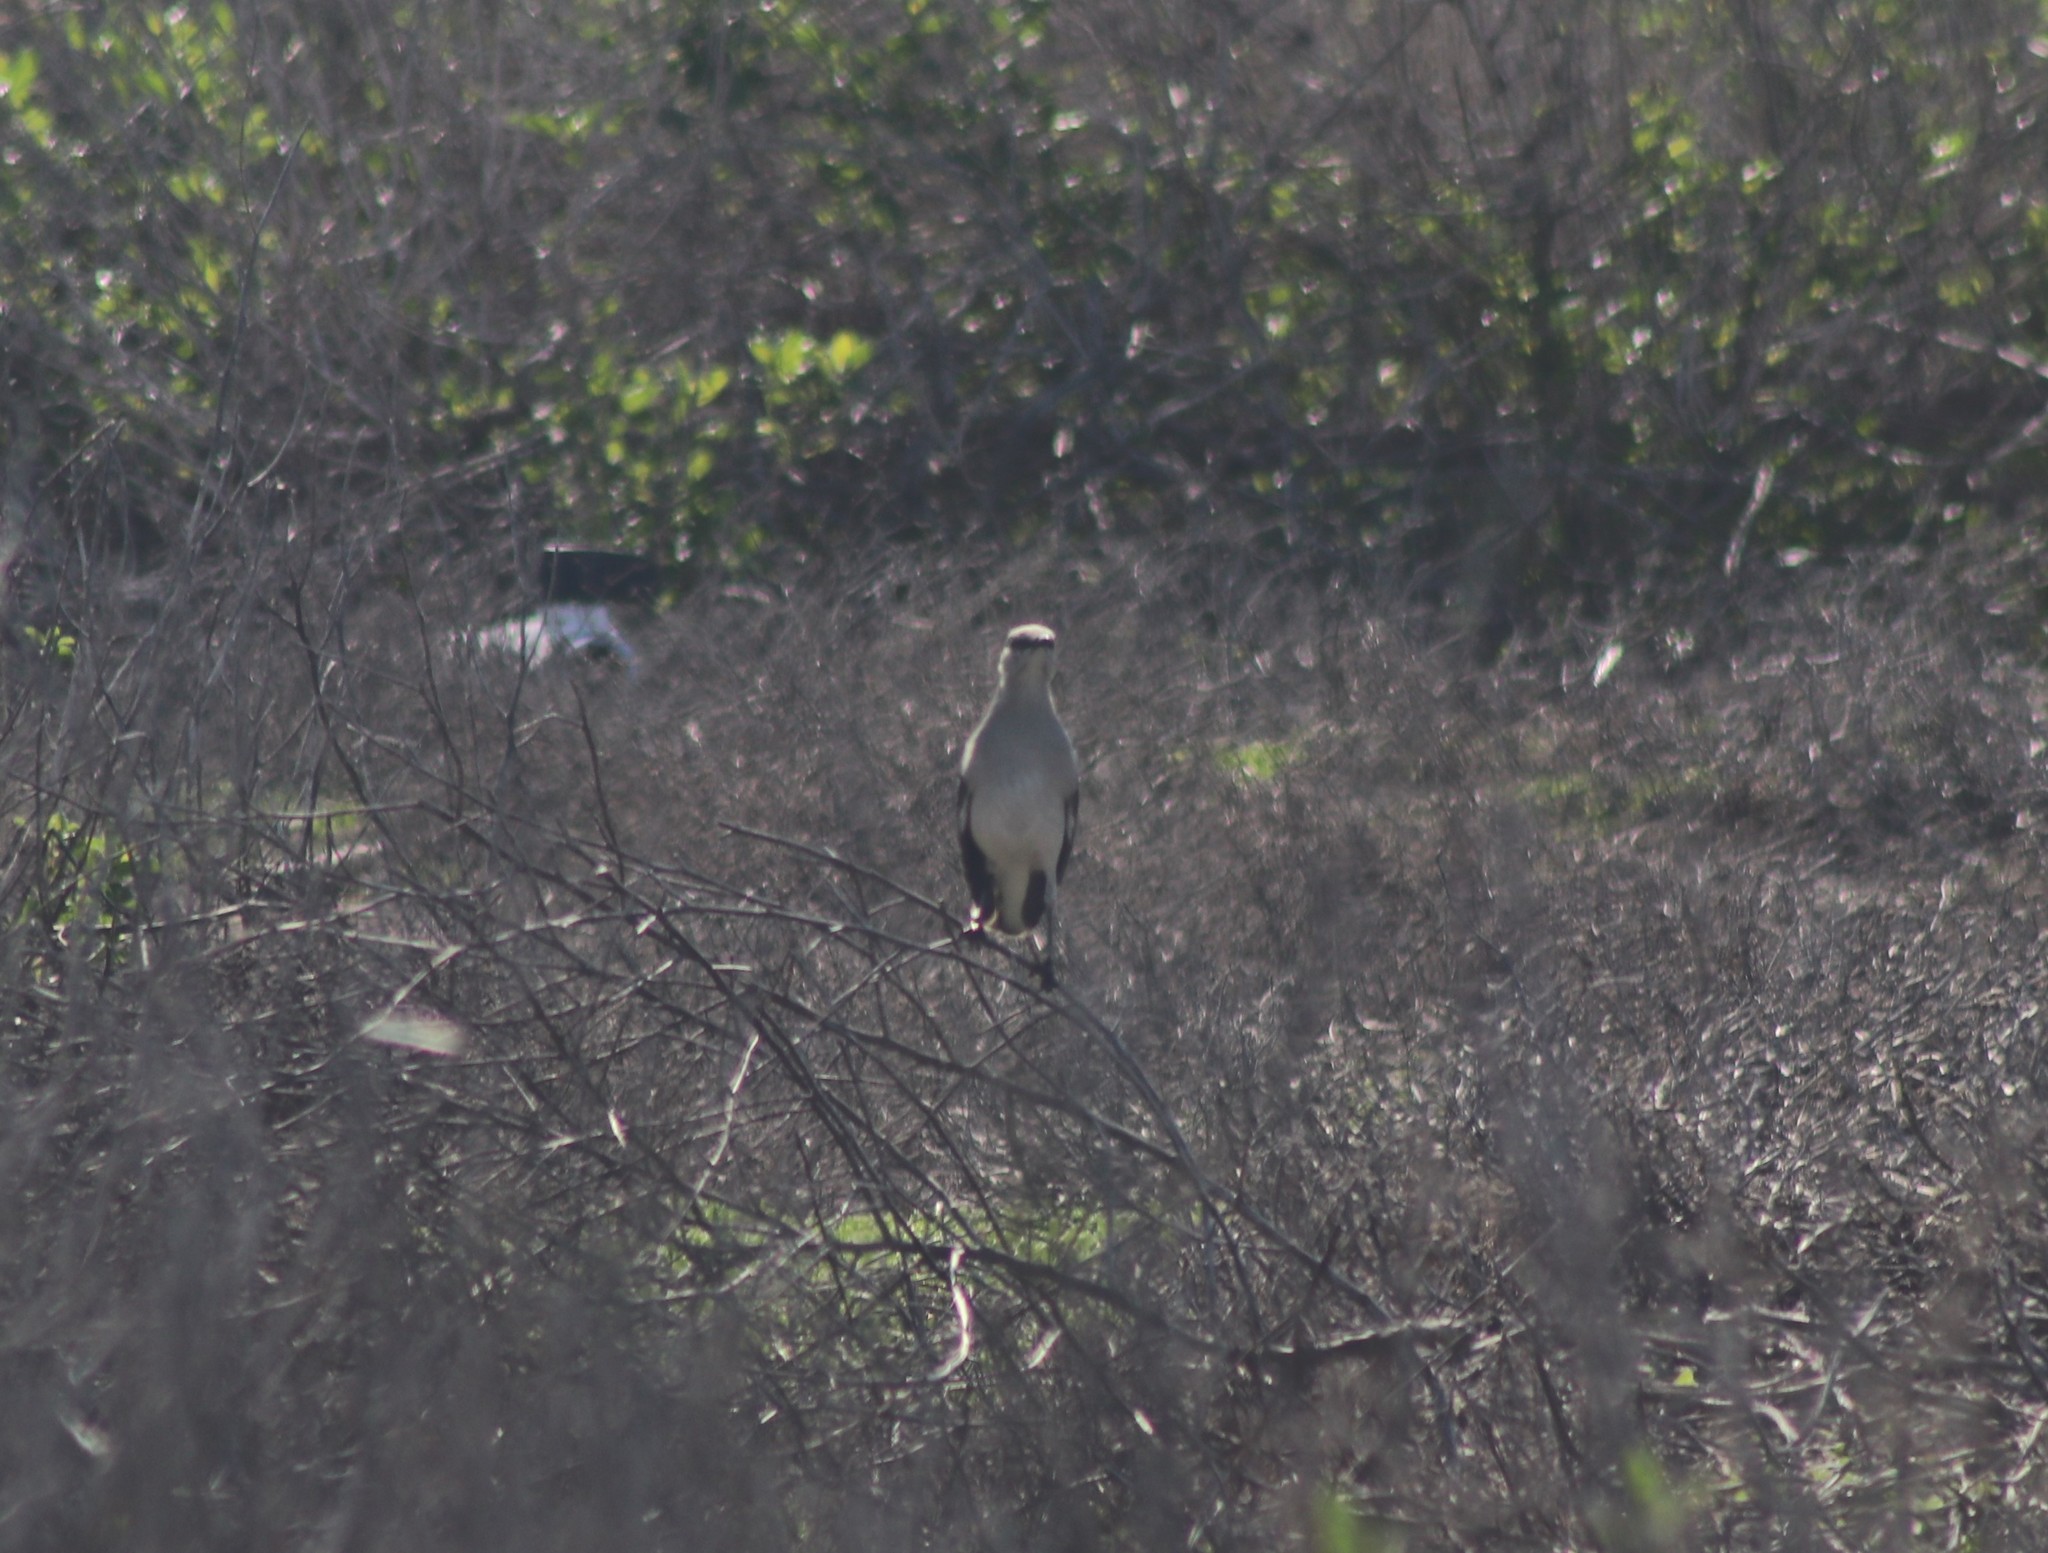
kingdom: Animalia
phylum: Chordata
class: Aves
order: Passeriformes
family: Mimidae
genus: Mimus
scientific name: Mimus polyglottos
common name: Northern mockingbird
